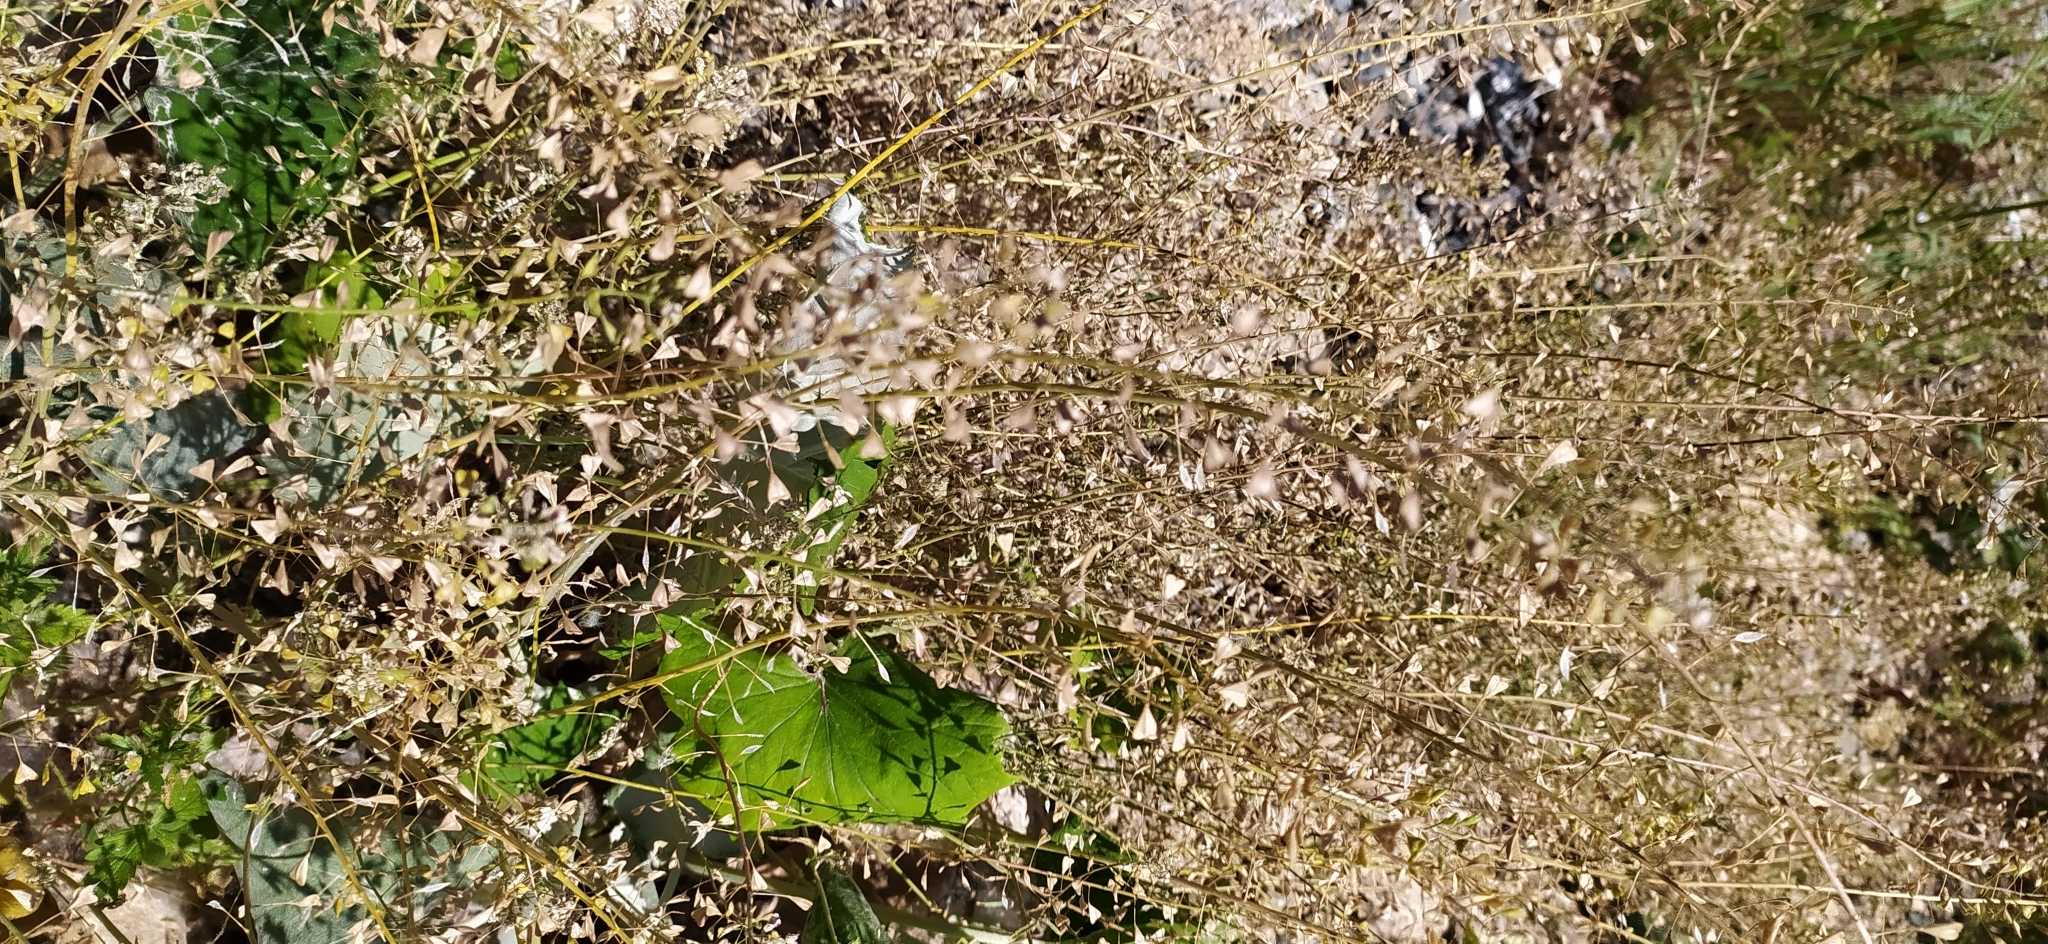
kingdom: Plantae
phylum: Tracheophyta
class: Magnoliopsida
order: Brassicales
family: Brassicaceae
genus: Capsella
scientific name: Capsella bursa-pastoris
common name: Shepherd's purse
